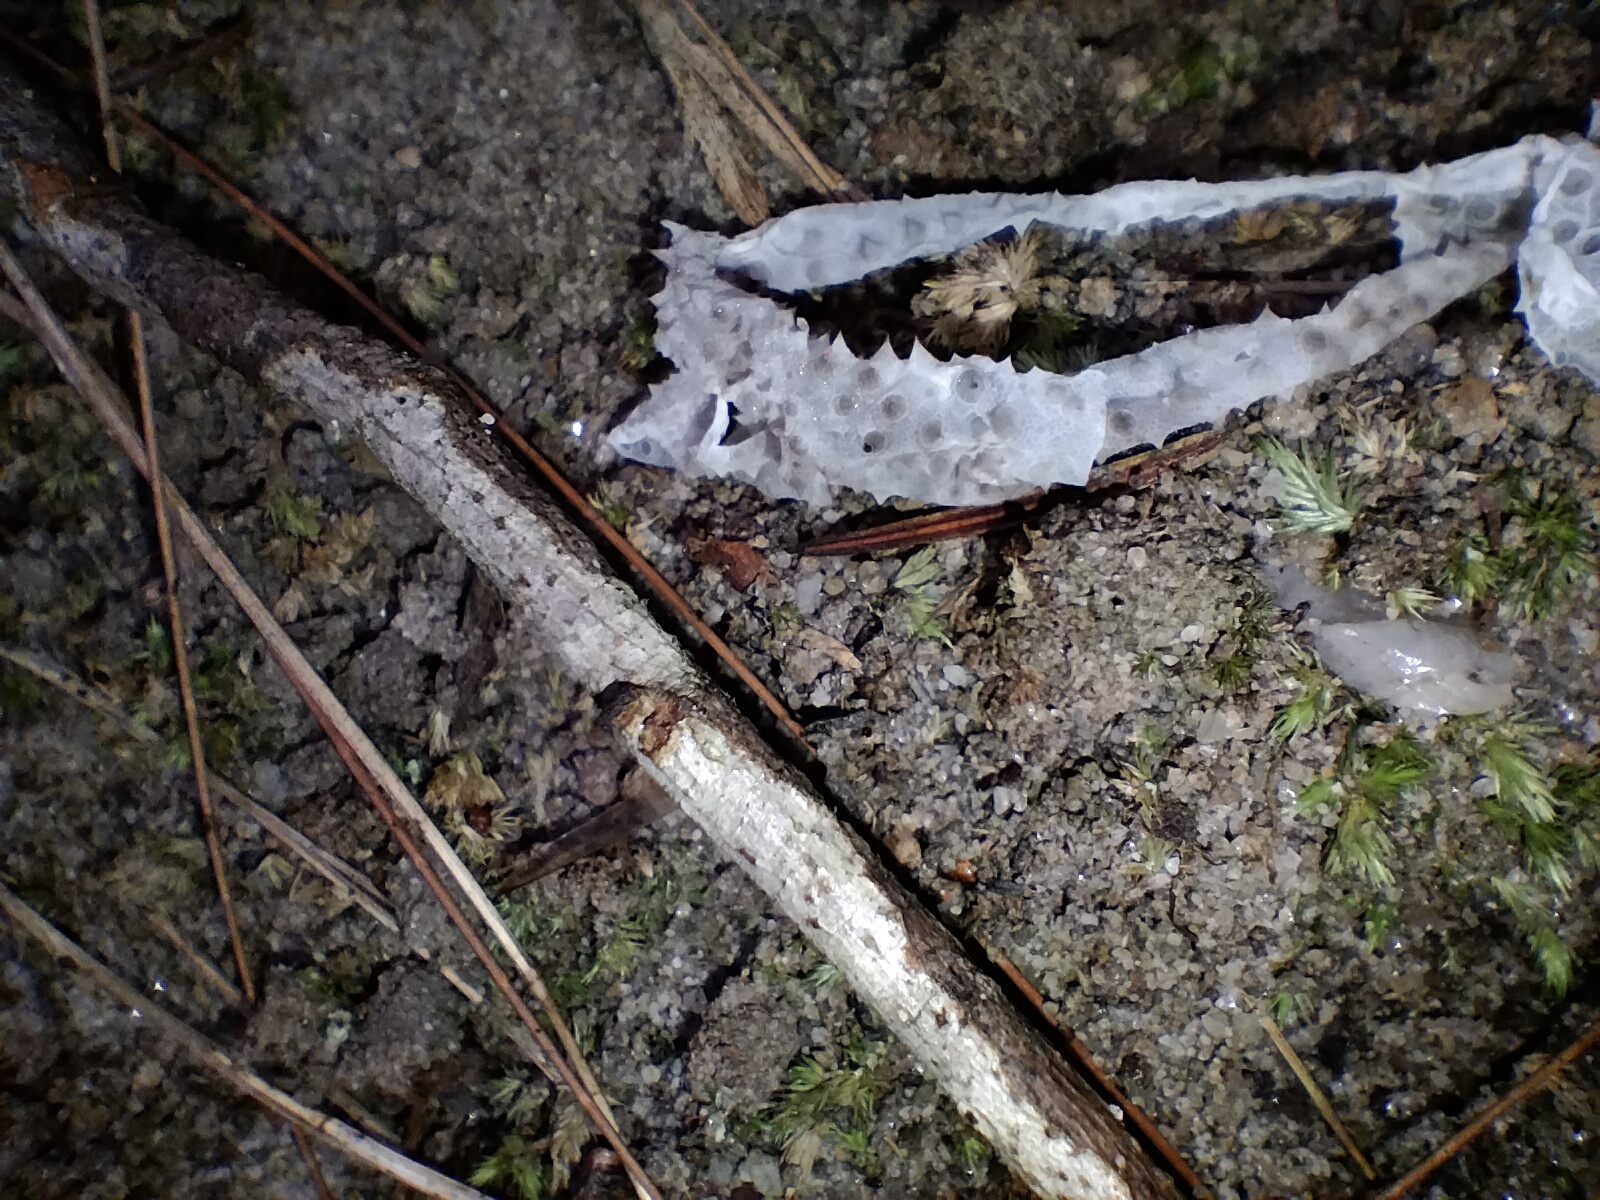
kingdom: Animalia
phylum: Chordata
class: Squamata
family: Carphodactylidae
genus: Phyllurus
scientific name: Phyllurus platurus
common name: Broad-tailed gecko
